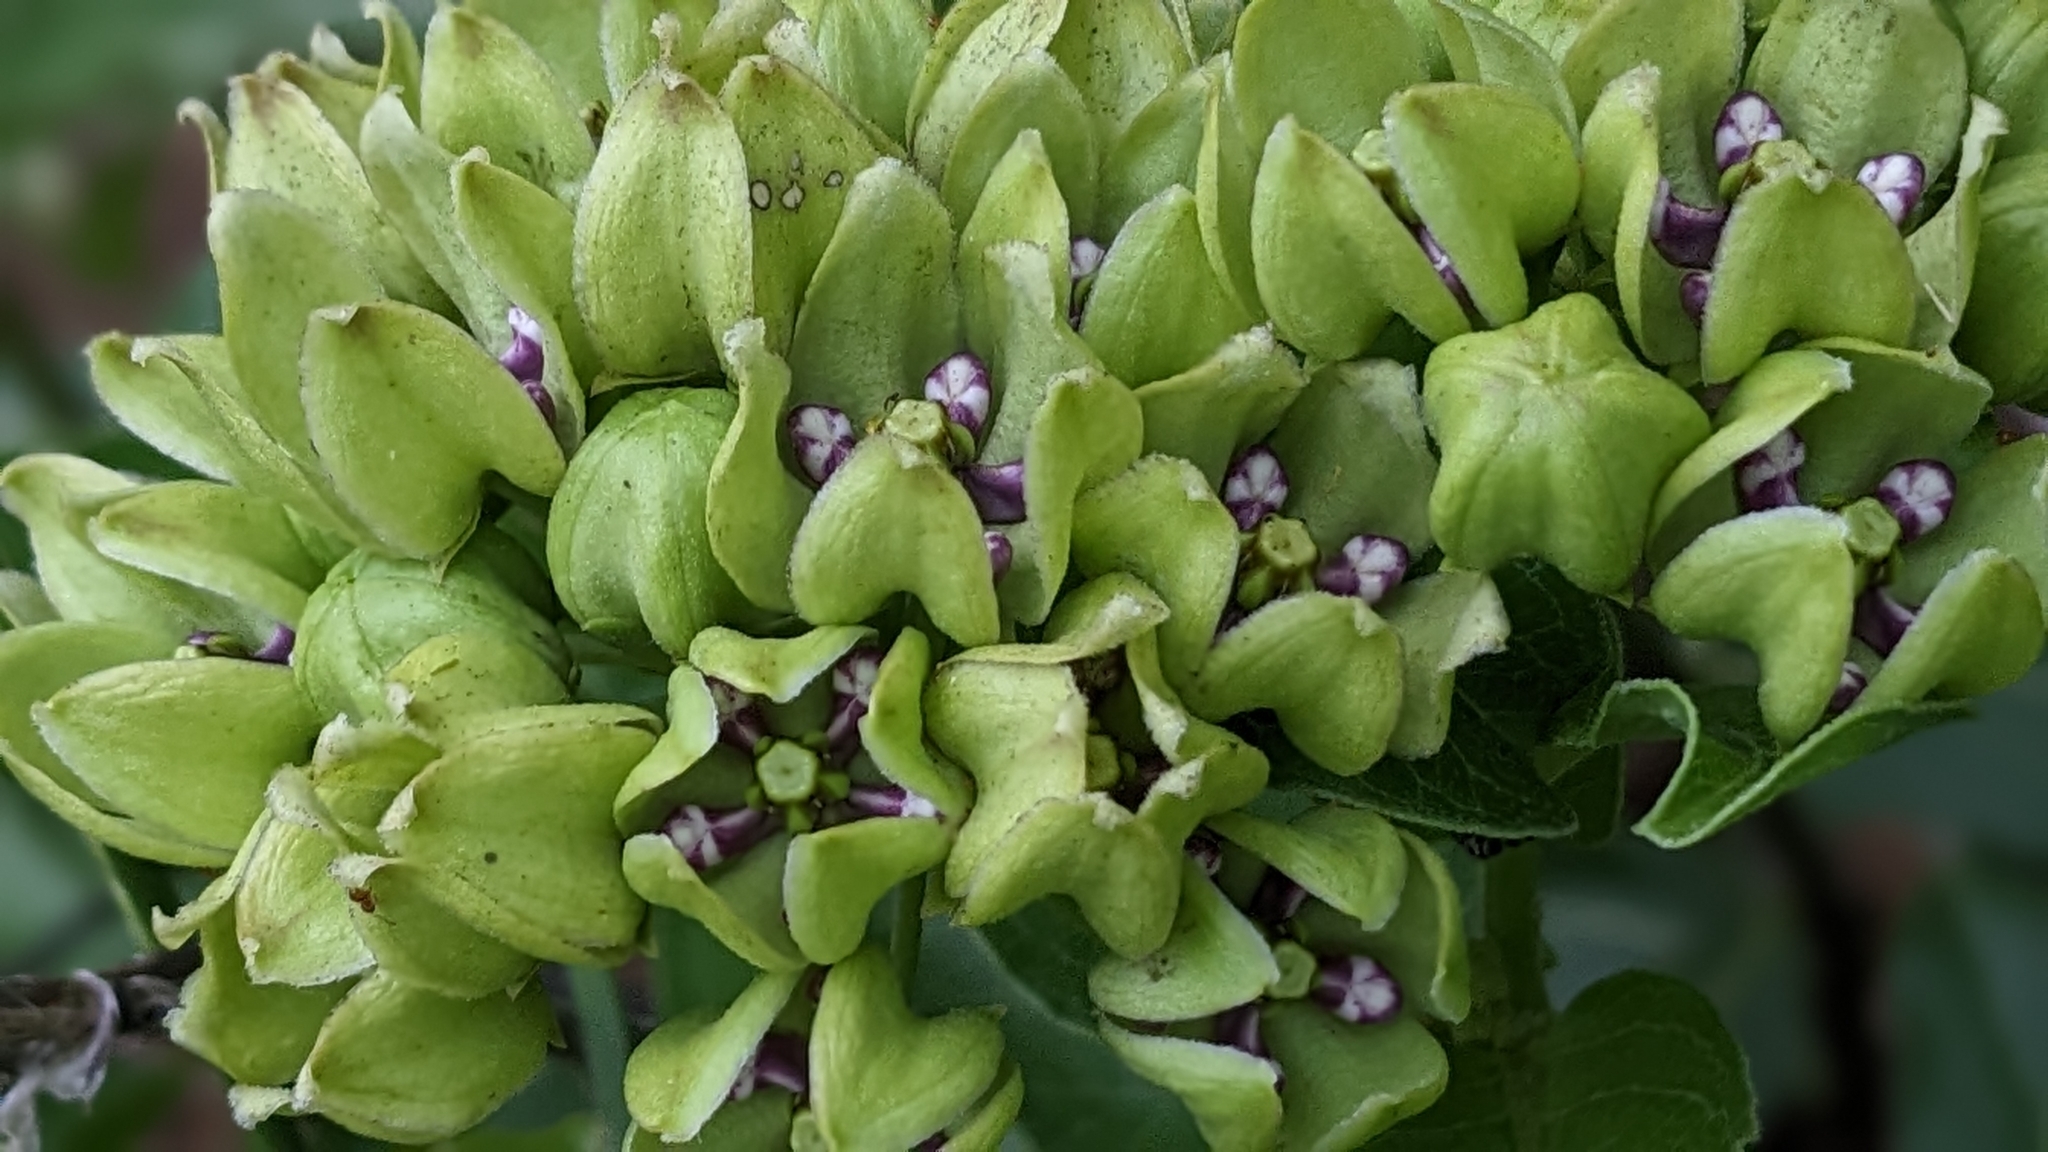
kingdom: Plantae
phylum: Tracheophyta
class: Magnoliopsida
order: Gentianales
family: Apocynaceae
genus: Asclepias
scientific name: Asclepias viridis
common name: Antelope-horns
